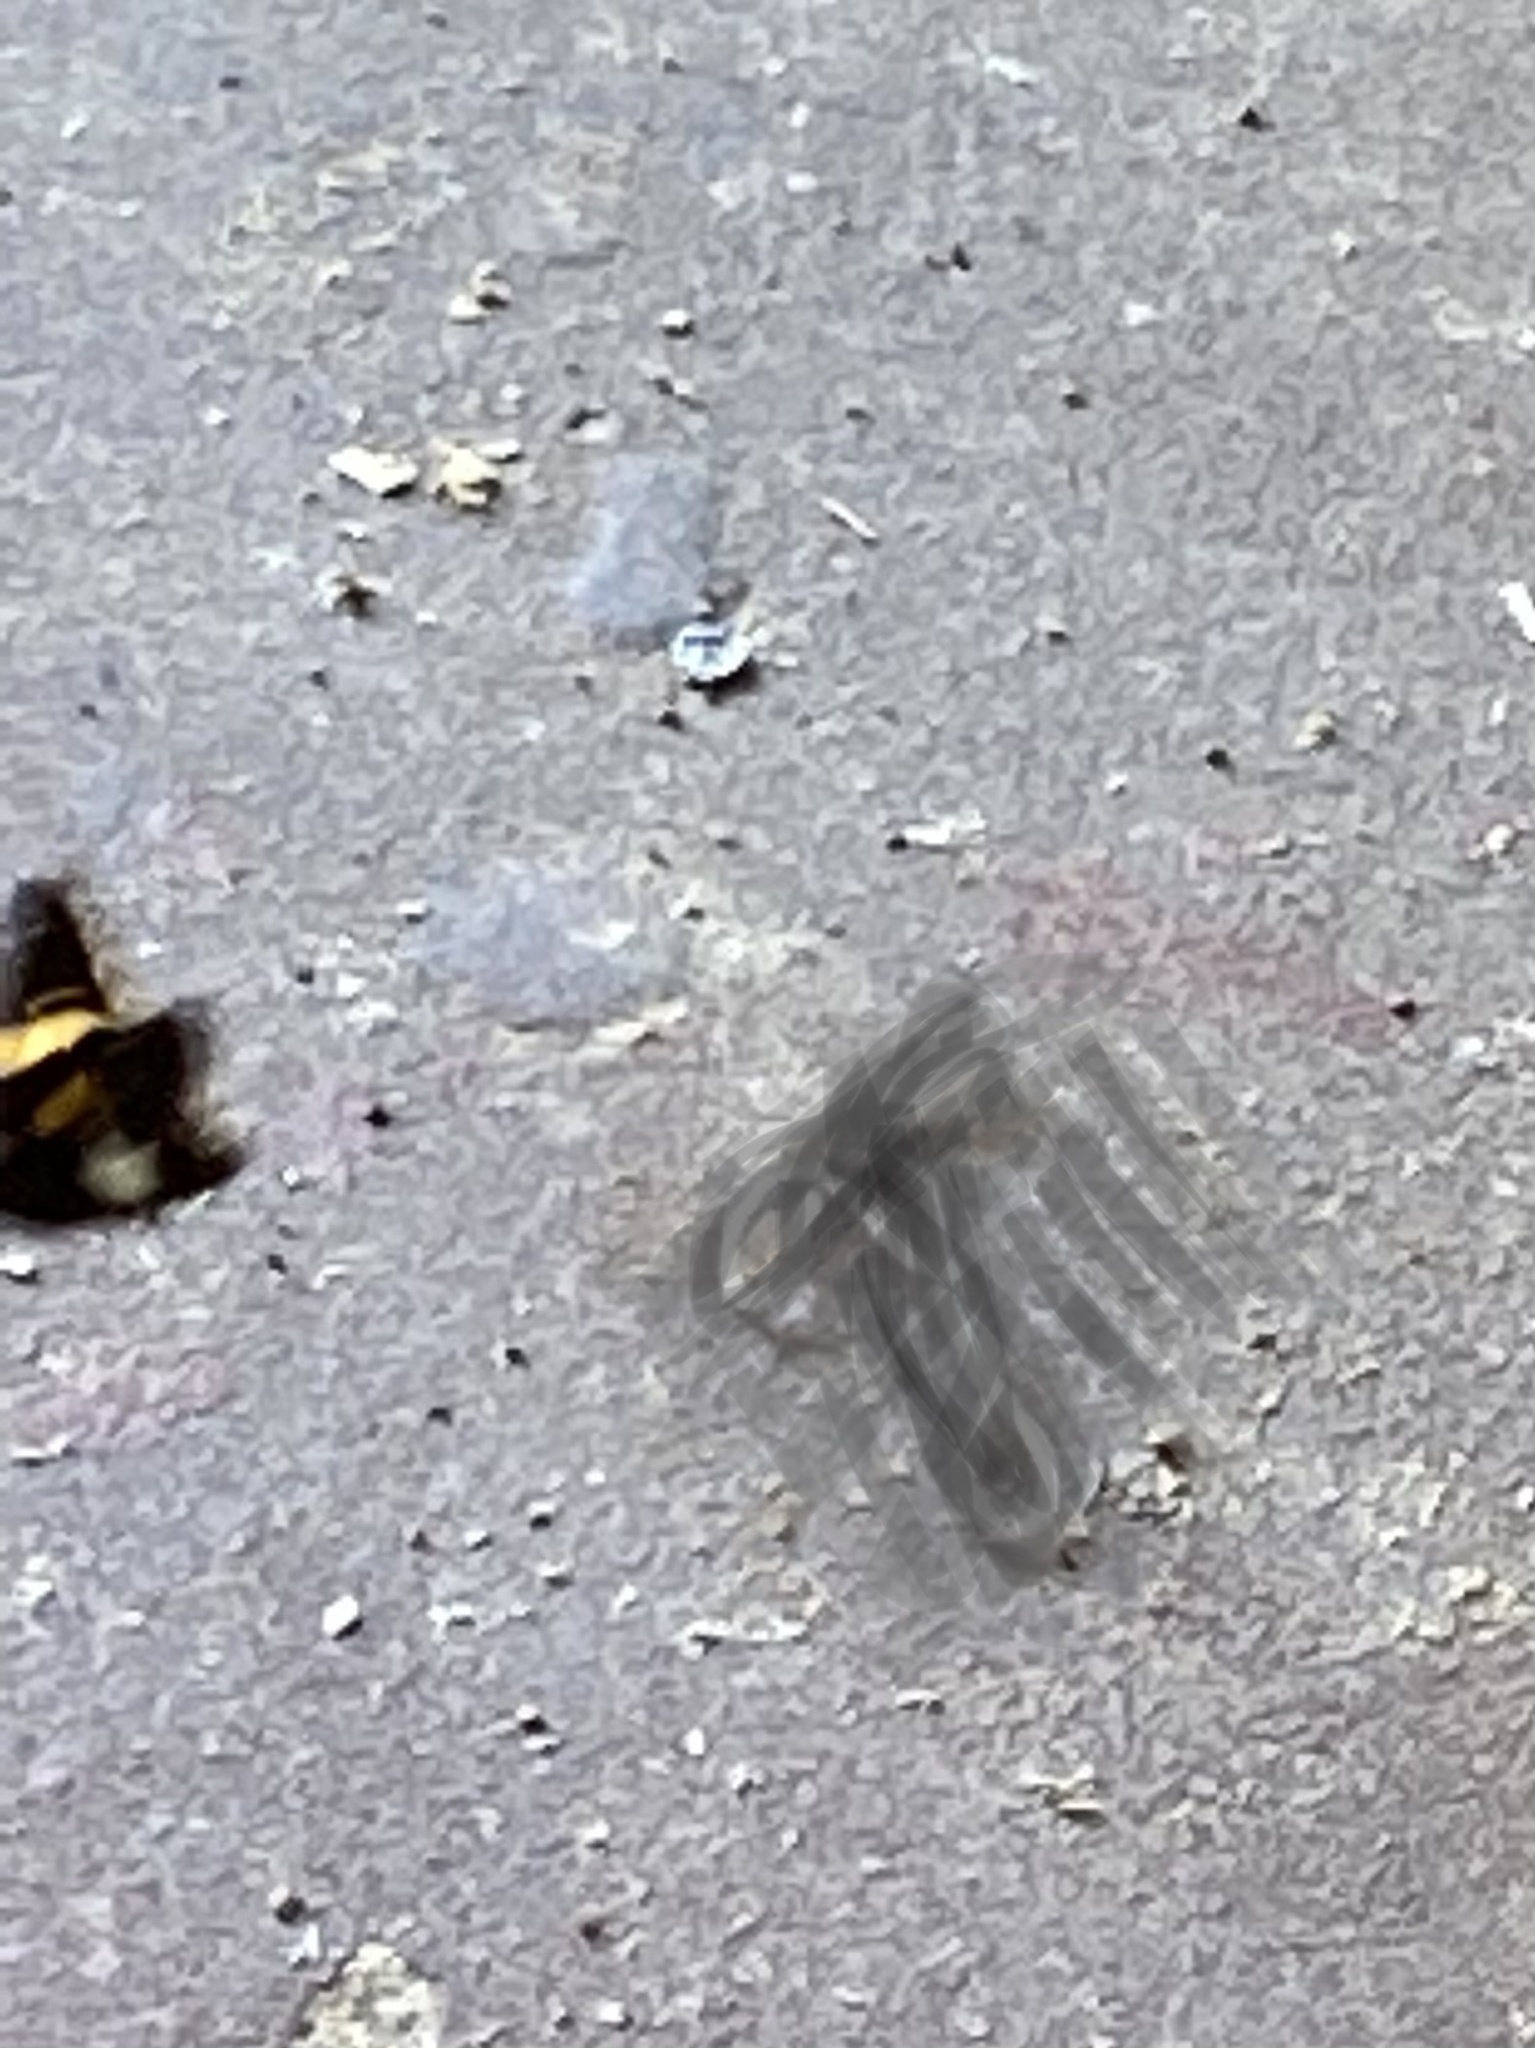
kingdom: Animalia
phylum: Arthropoda
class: Insecta
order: Lepidoptera
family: Hesperiidae
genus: Epargyreus
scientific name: Epargyreus clarus
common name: Silver-spotted skipper
